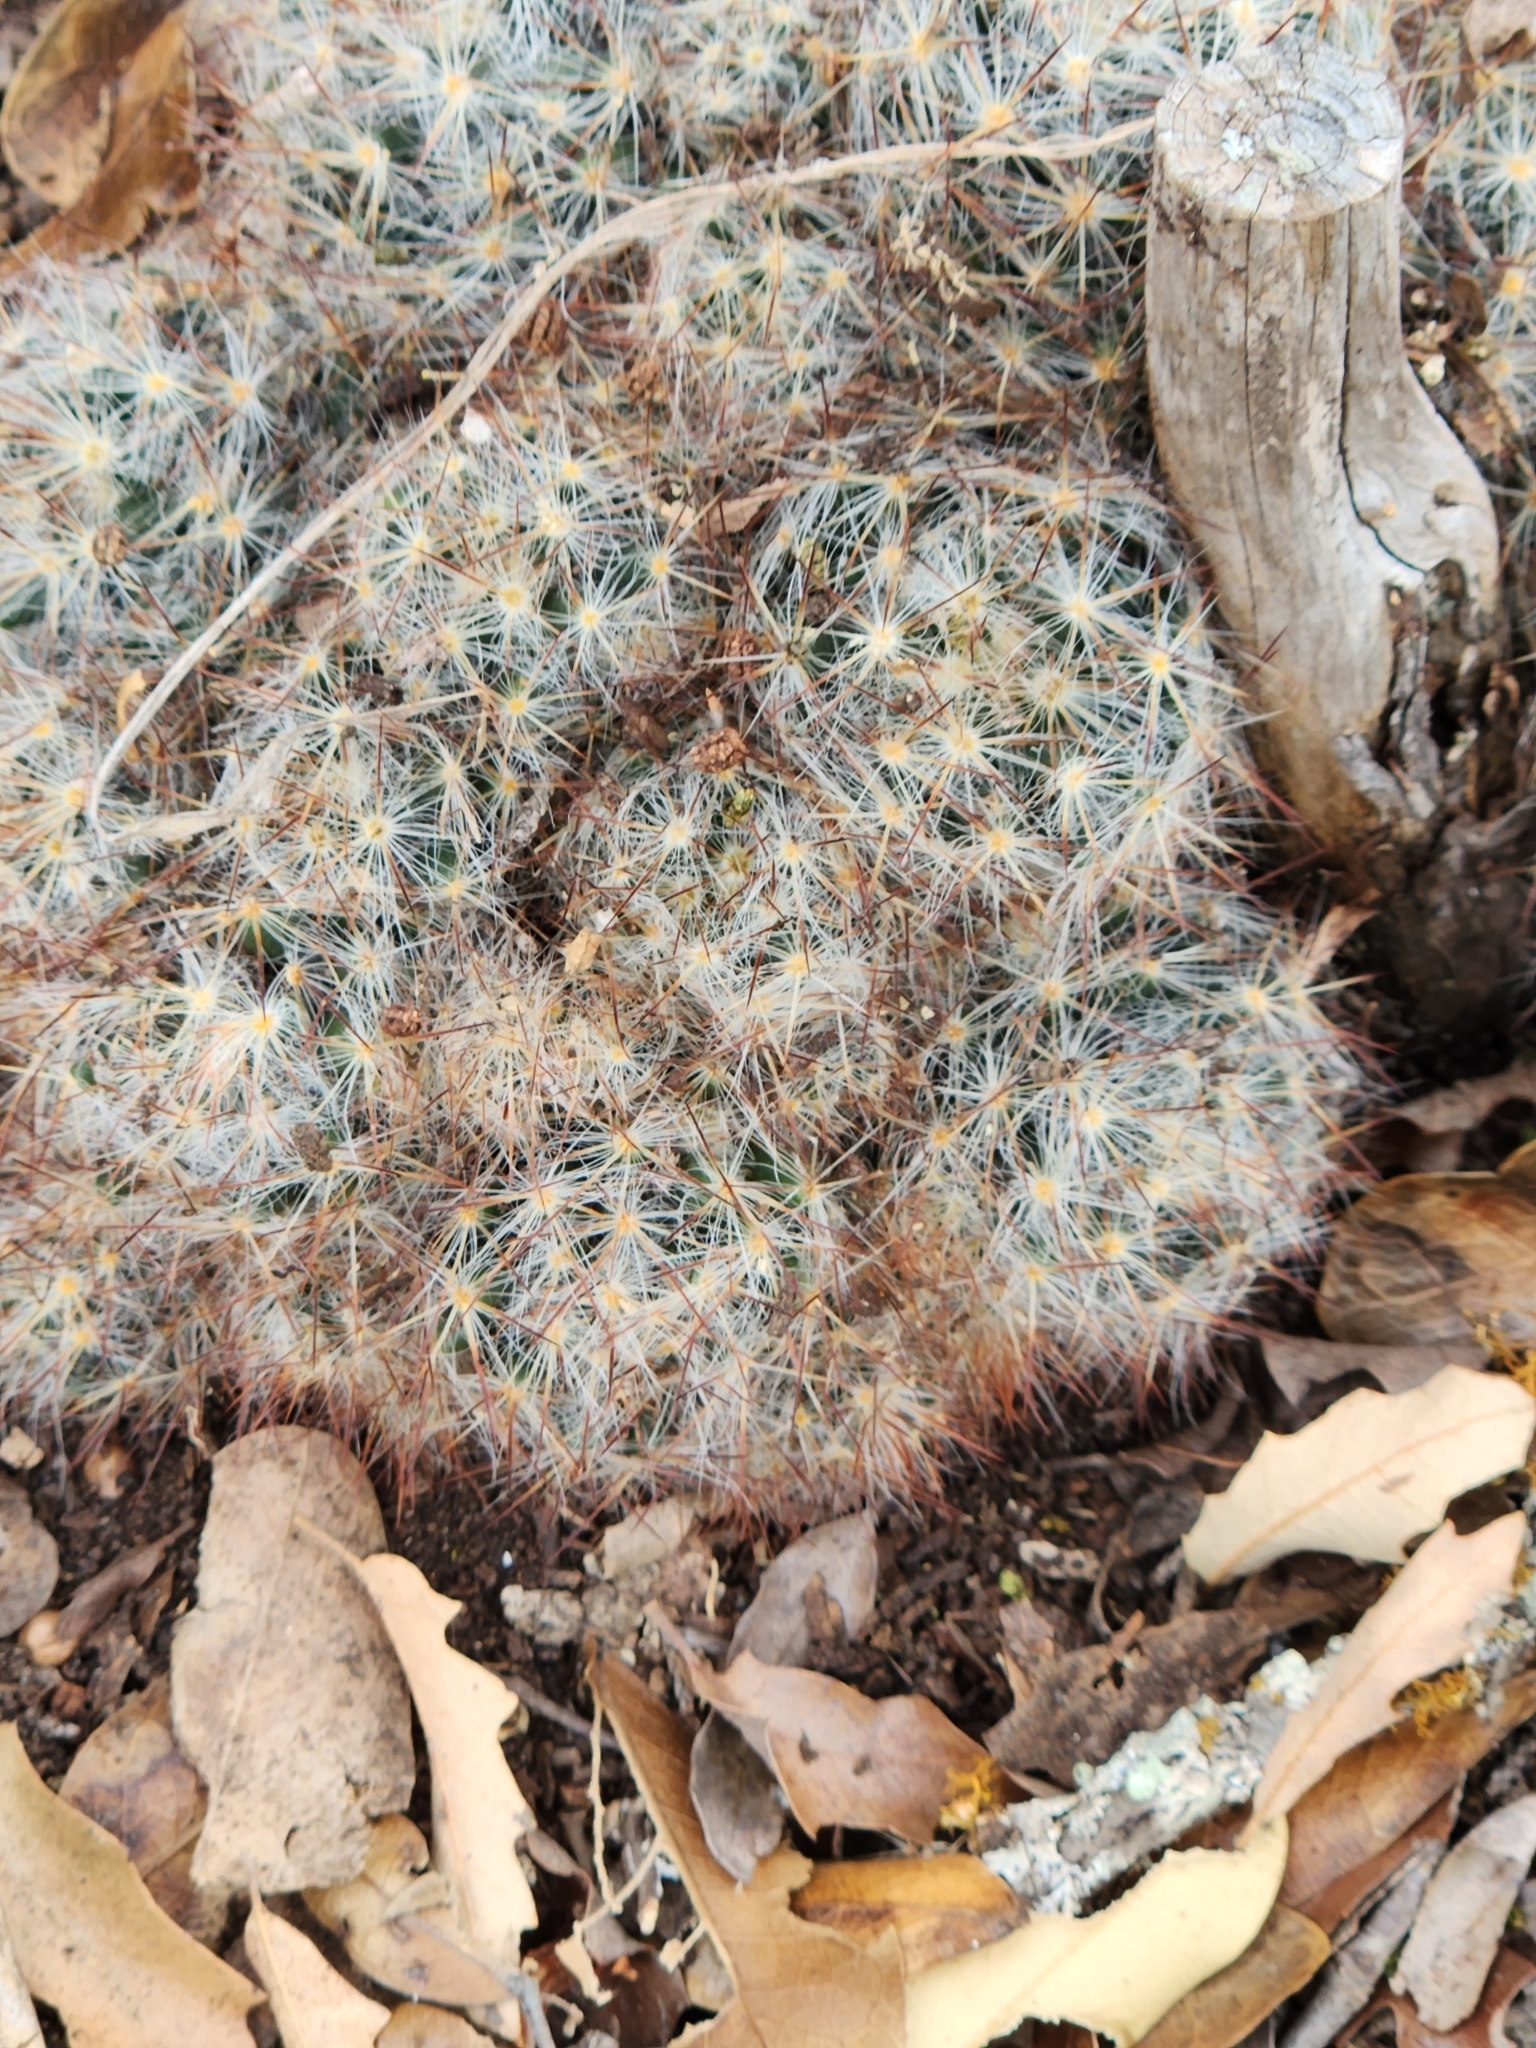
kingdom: Plantae
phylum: Tracheophyta
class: Magnoliopsida
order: Caryophyllales
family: Cactaceae
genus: Mammillaria
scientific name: Mammillaria prolifera
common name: Texas nipple cactus
